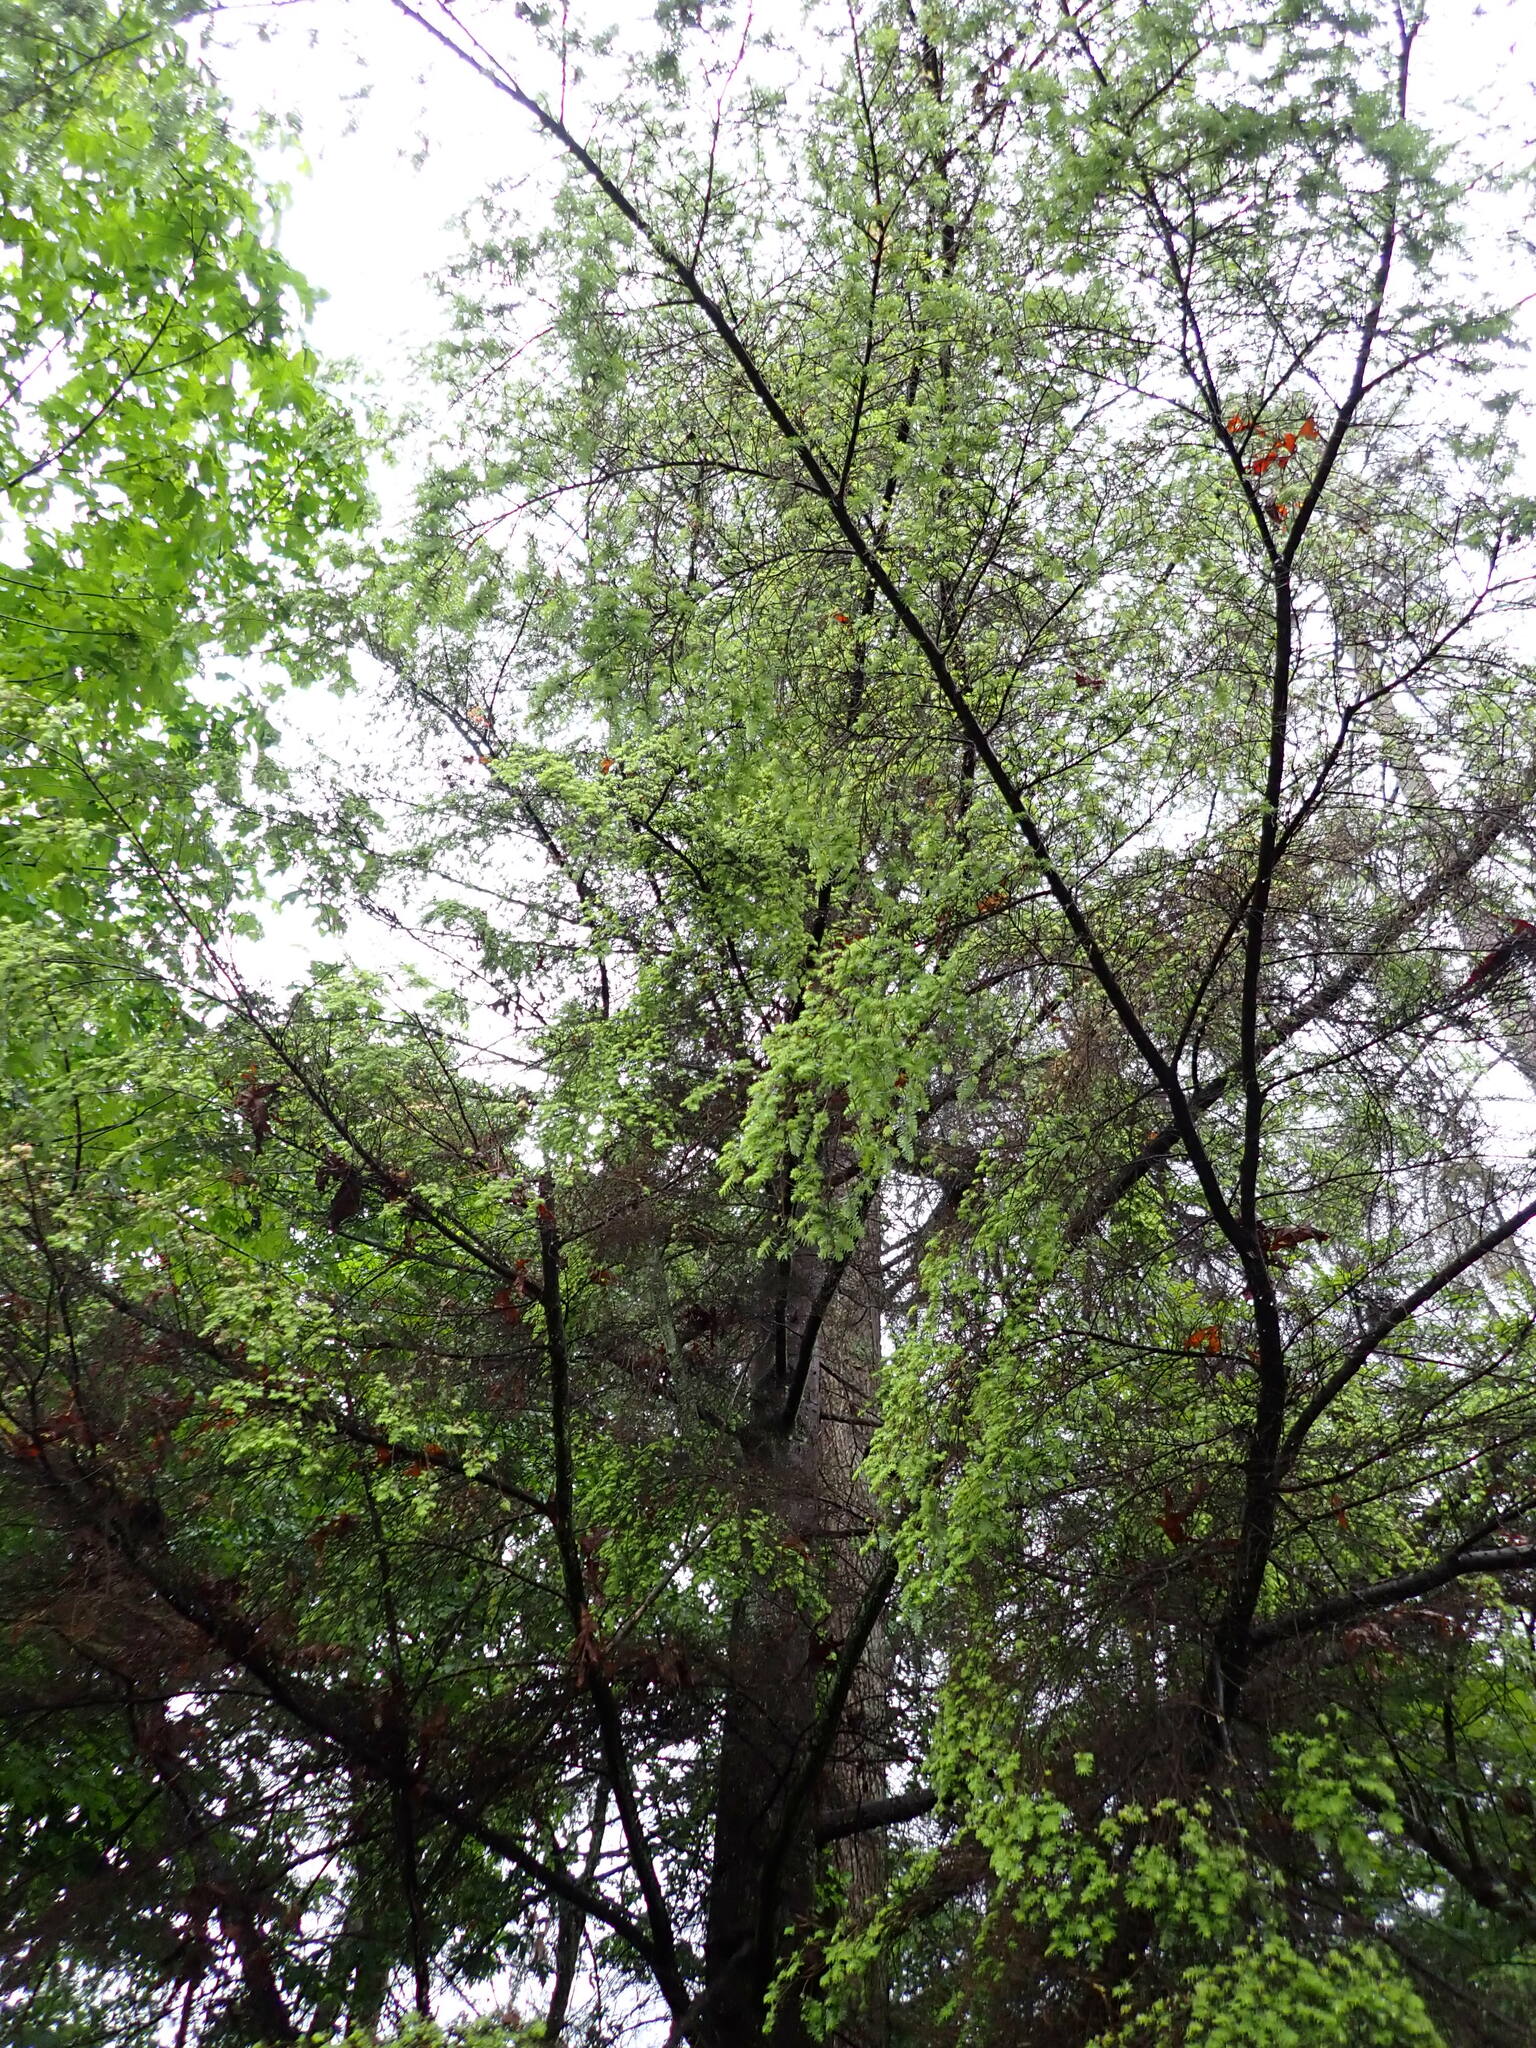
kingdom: Plantae
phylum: Tracheophyta
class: Pinopsida
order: Pinales
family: Pinaceae
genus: Tsuga
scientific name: Tsuga heterophylla
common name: Western hemlock
